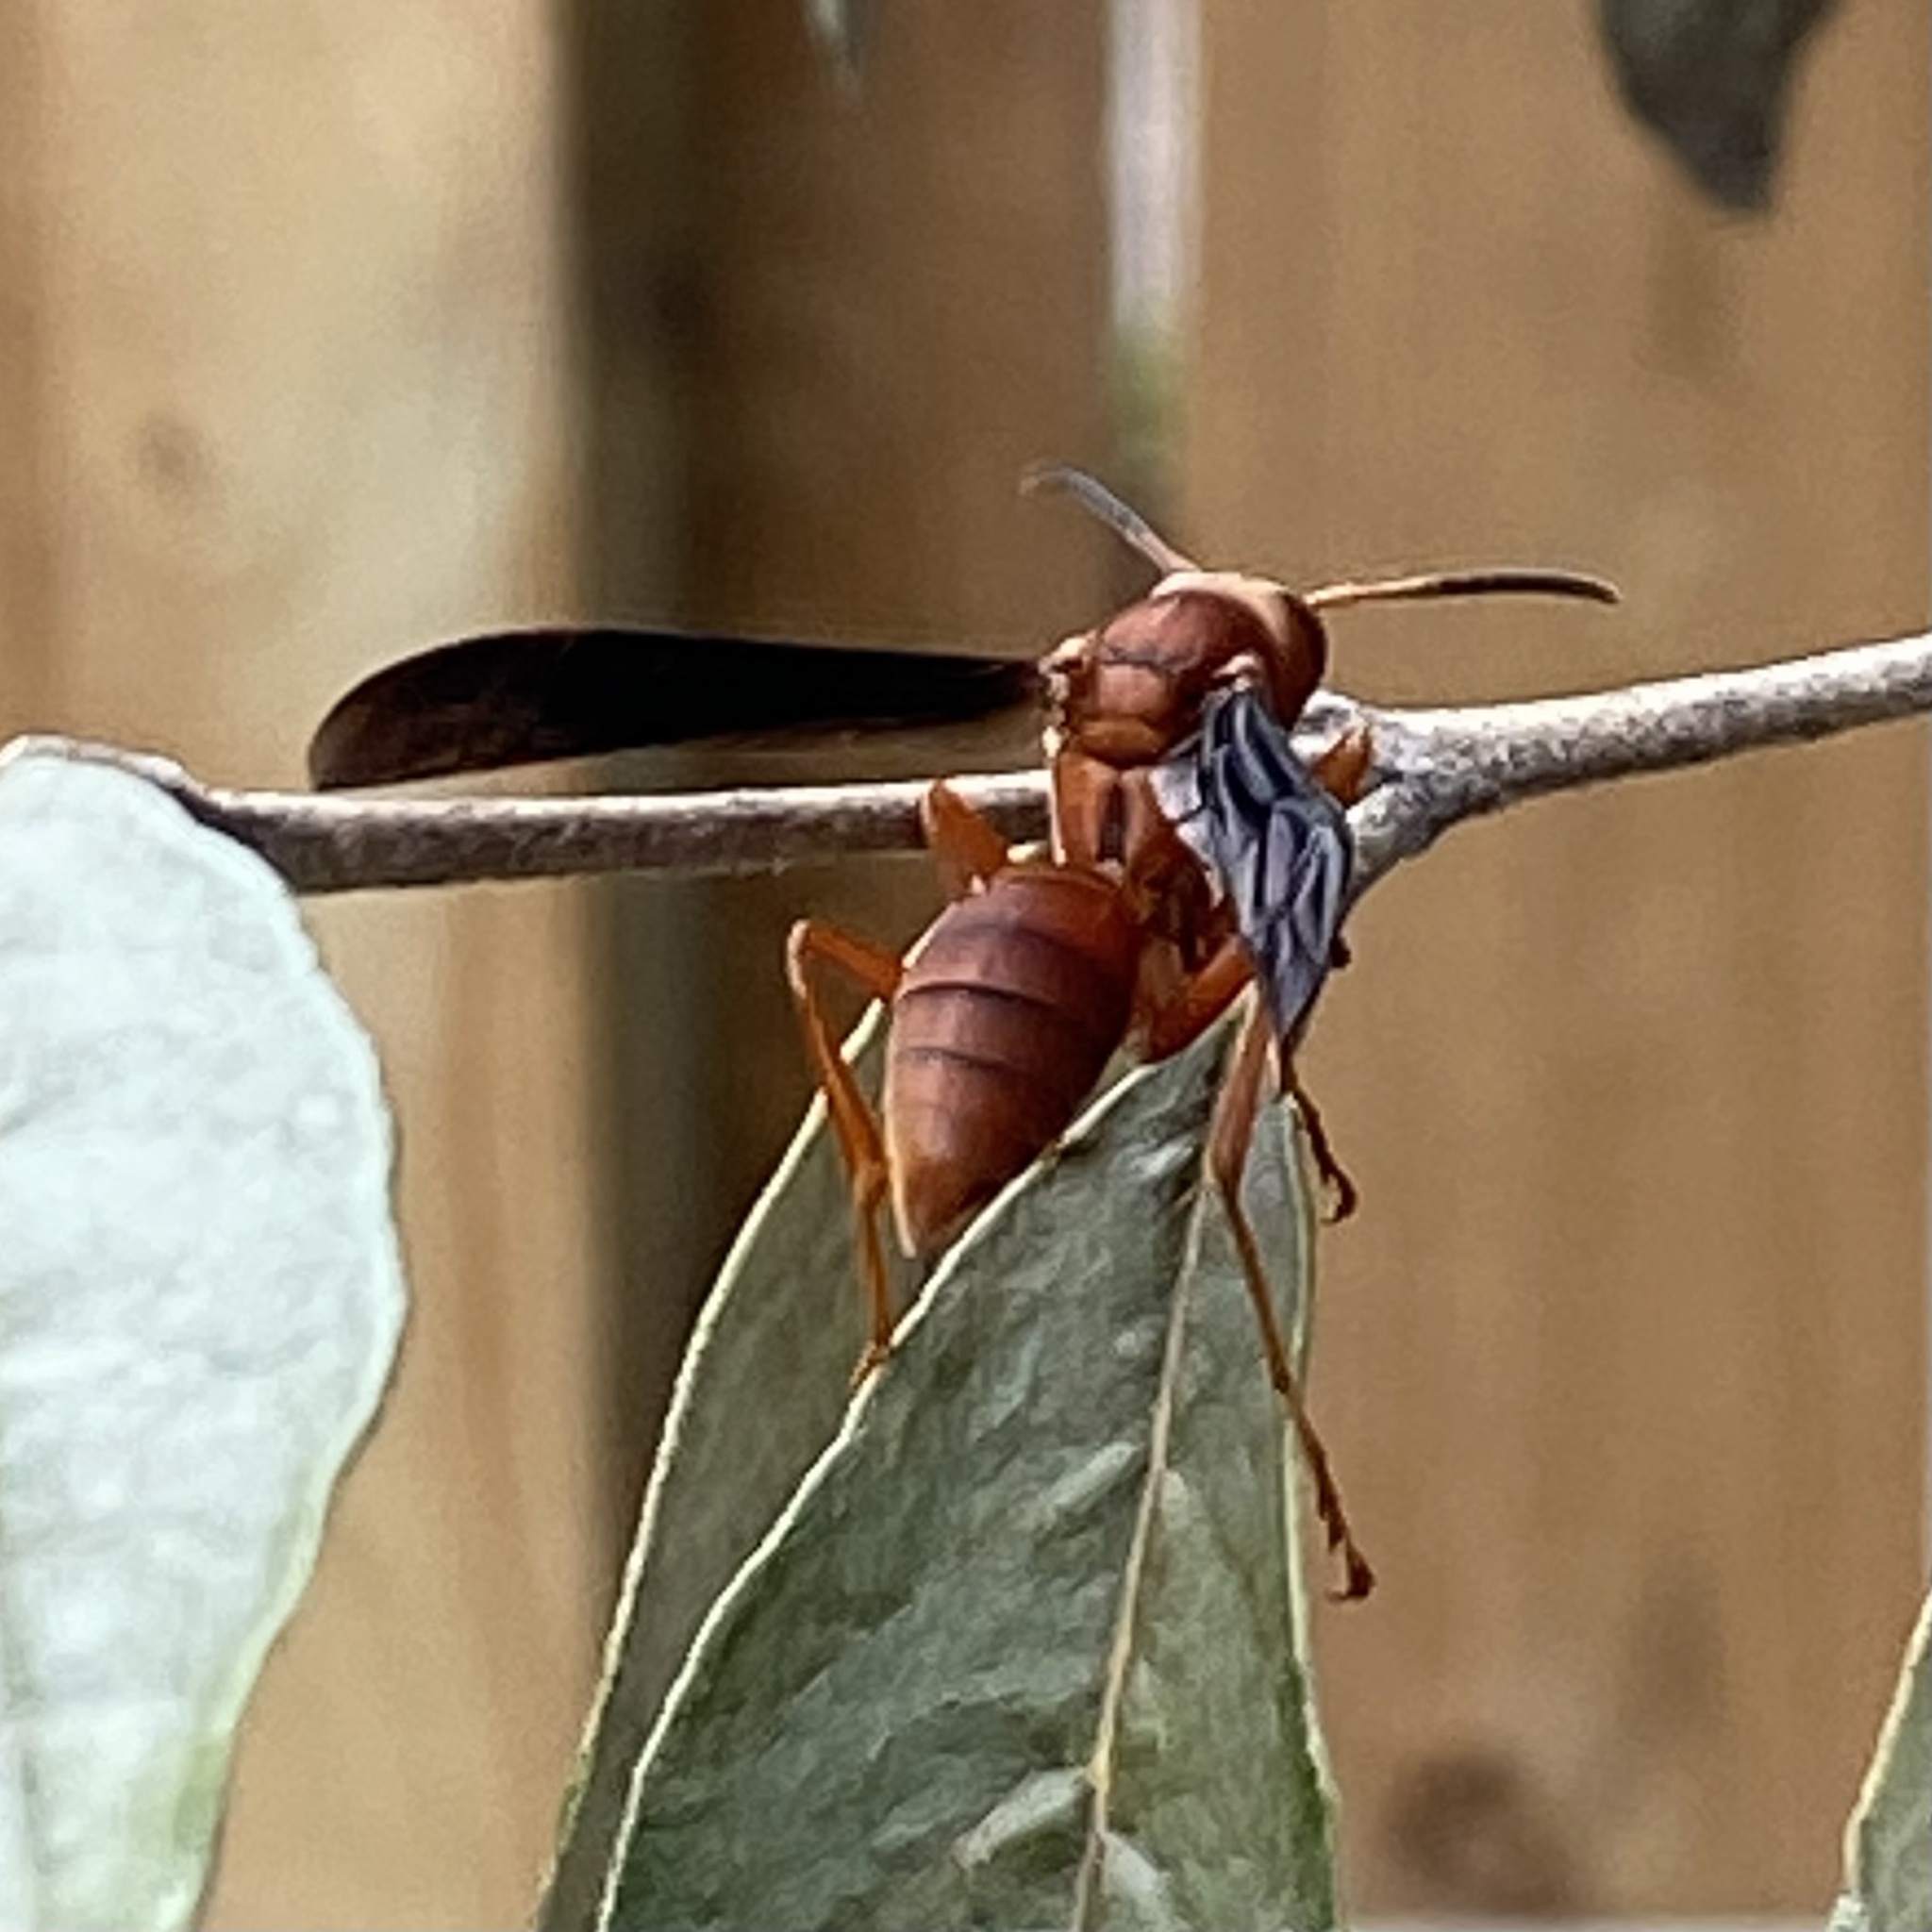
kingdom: Animalia
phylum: Arthropoda
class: Insecta
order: Hymenoptera
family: Vespidae
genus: Fuscopolistes
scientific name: Fuscopolistes
